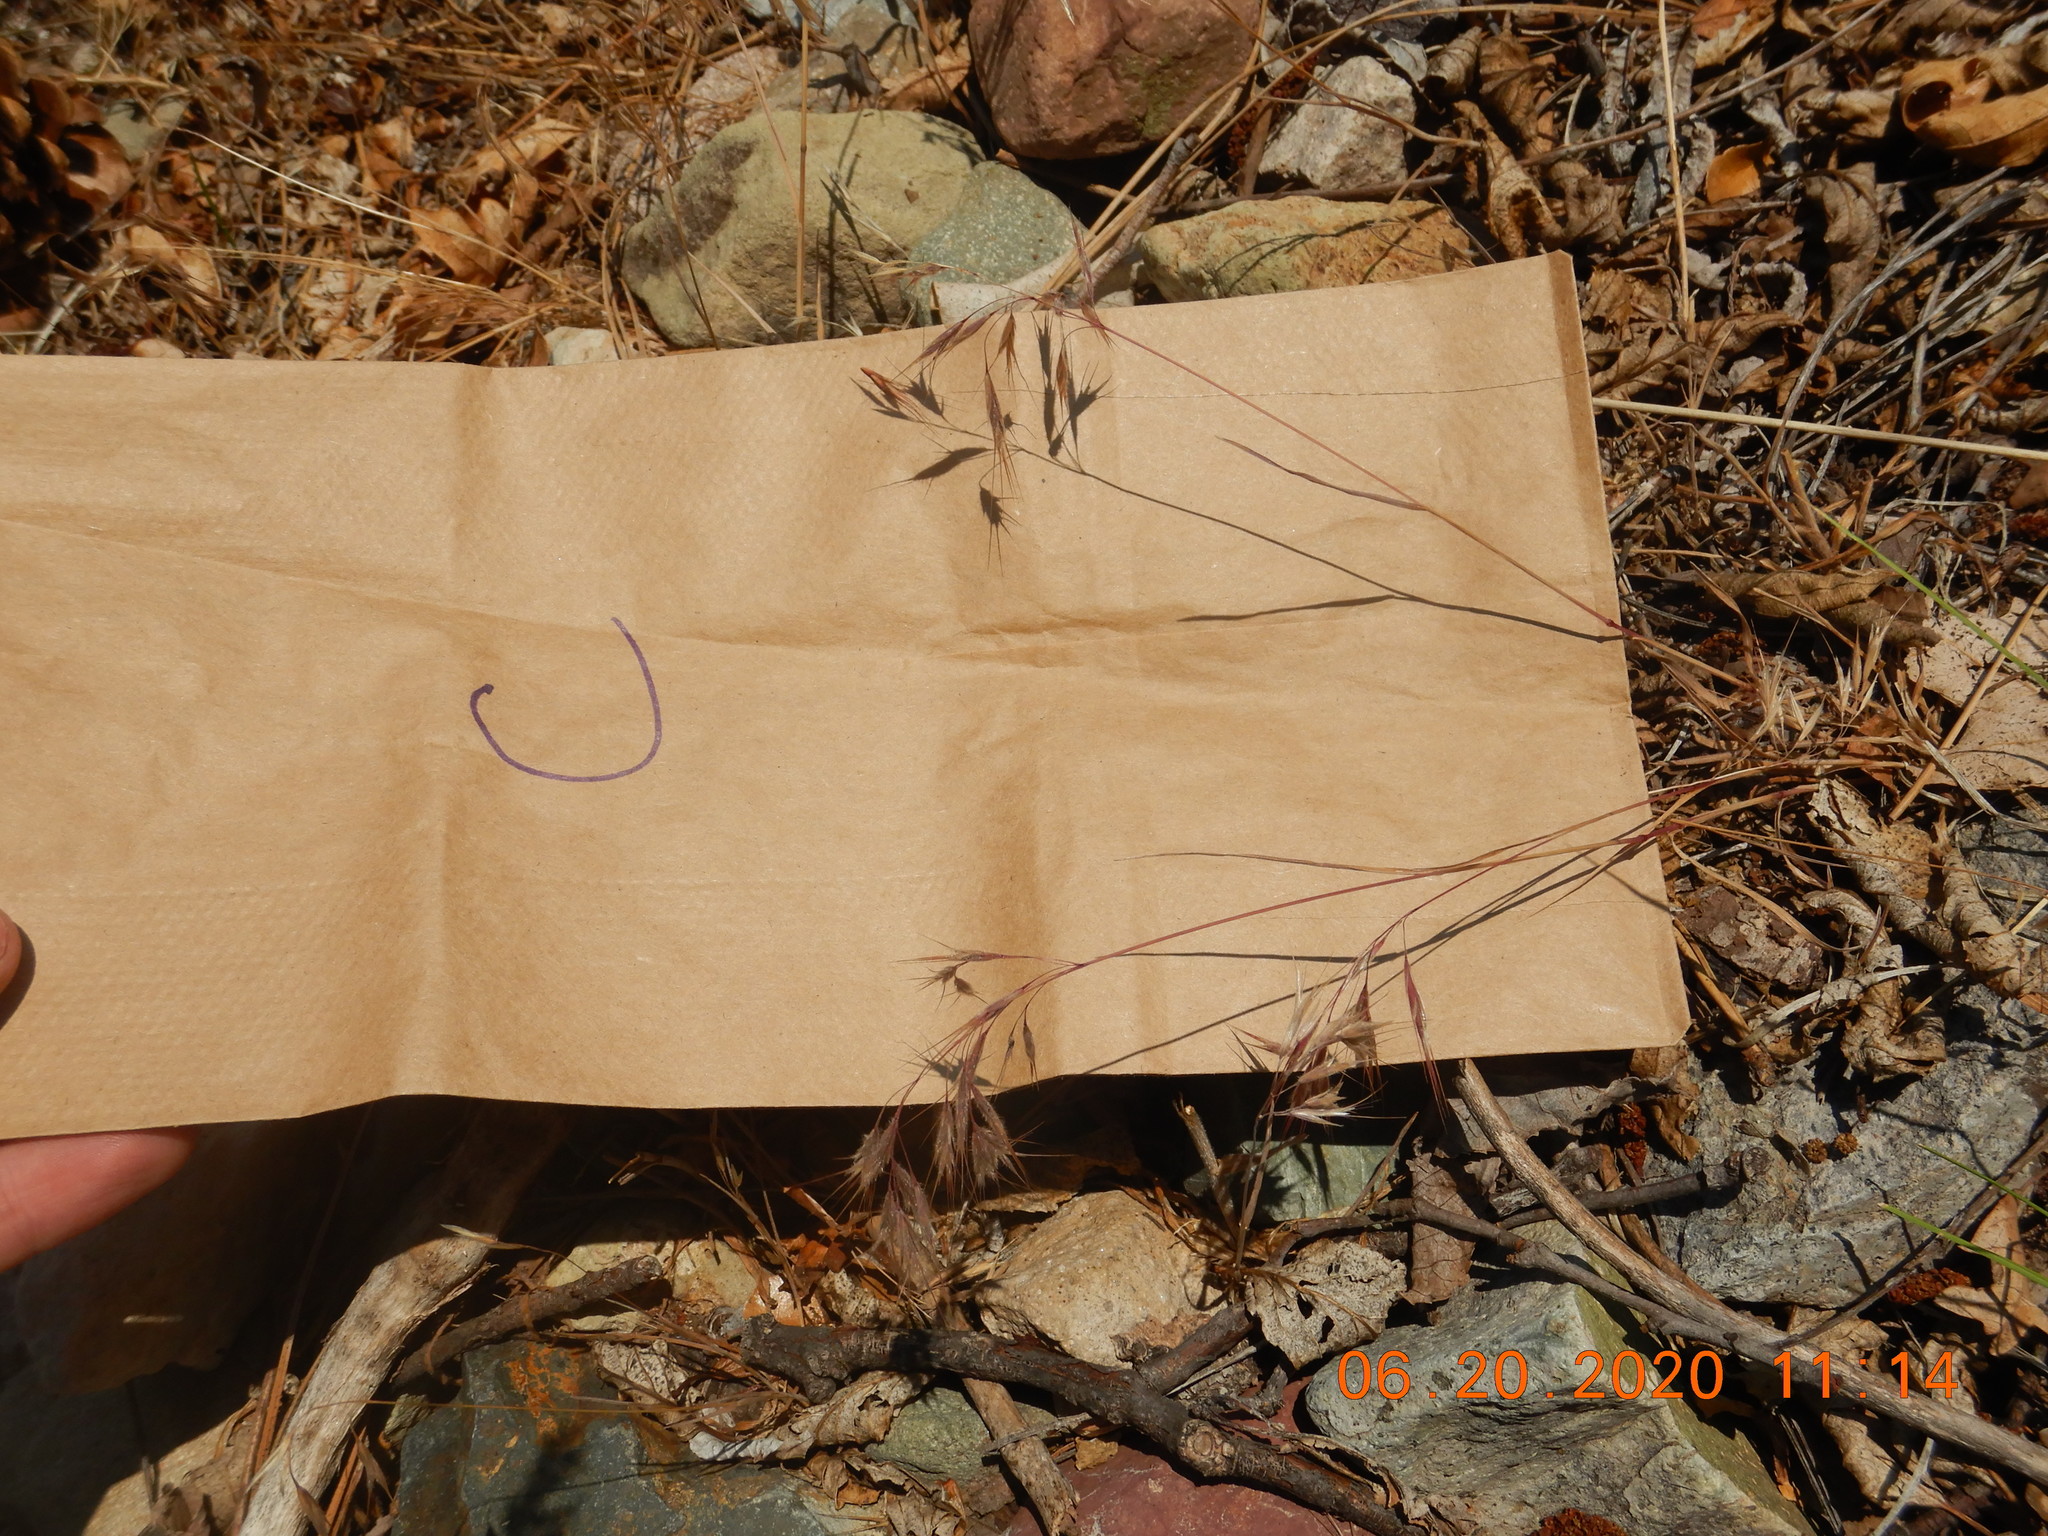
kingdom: Plantae
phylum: Tracheophyta
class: Liliopsida
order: Poales
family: Poaceae
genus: Bromus
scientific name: Bromus tectorum
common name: Cheatgrass
